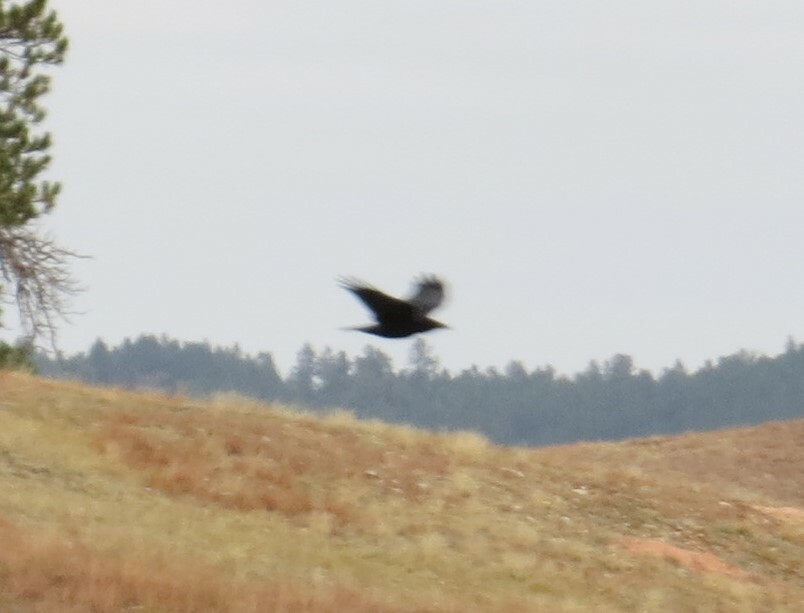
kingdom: Animalia
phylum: Chordata
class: Aves
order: Passeriformes
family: Corvidae
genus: Corvus
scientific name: Corvus brachyrhynchos
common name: American crow
